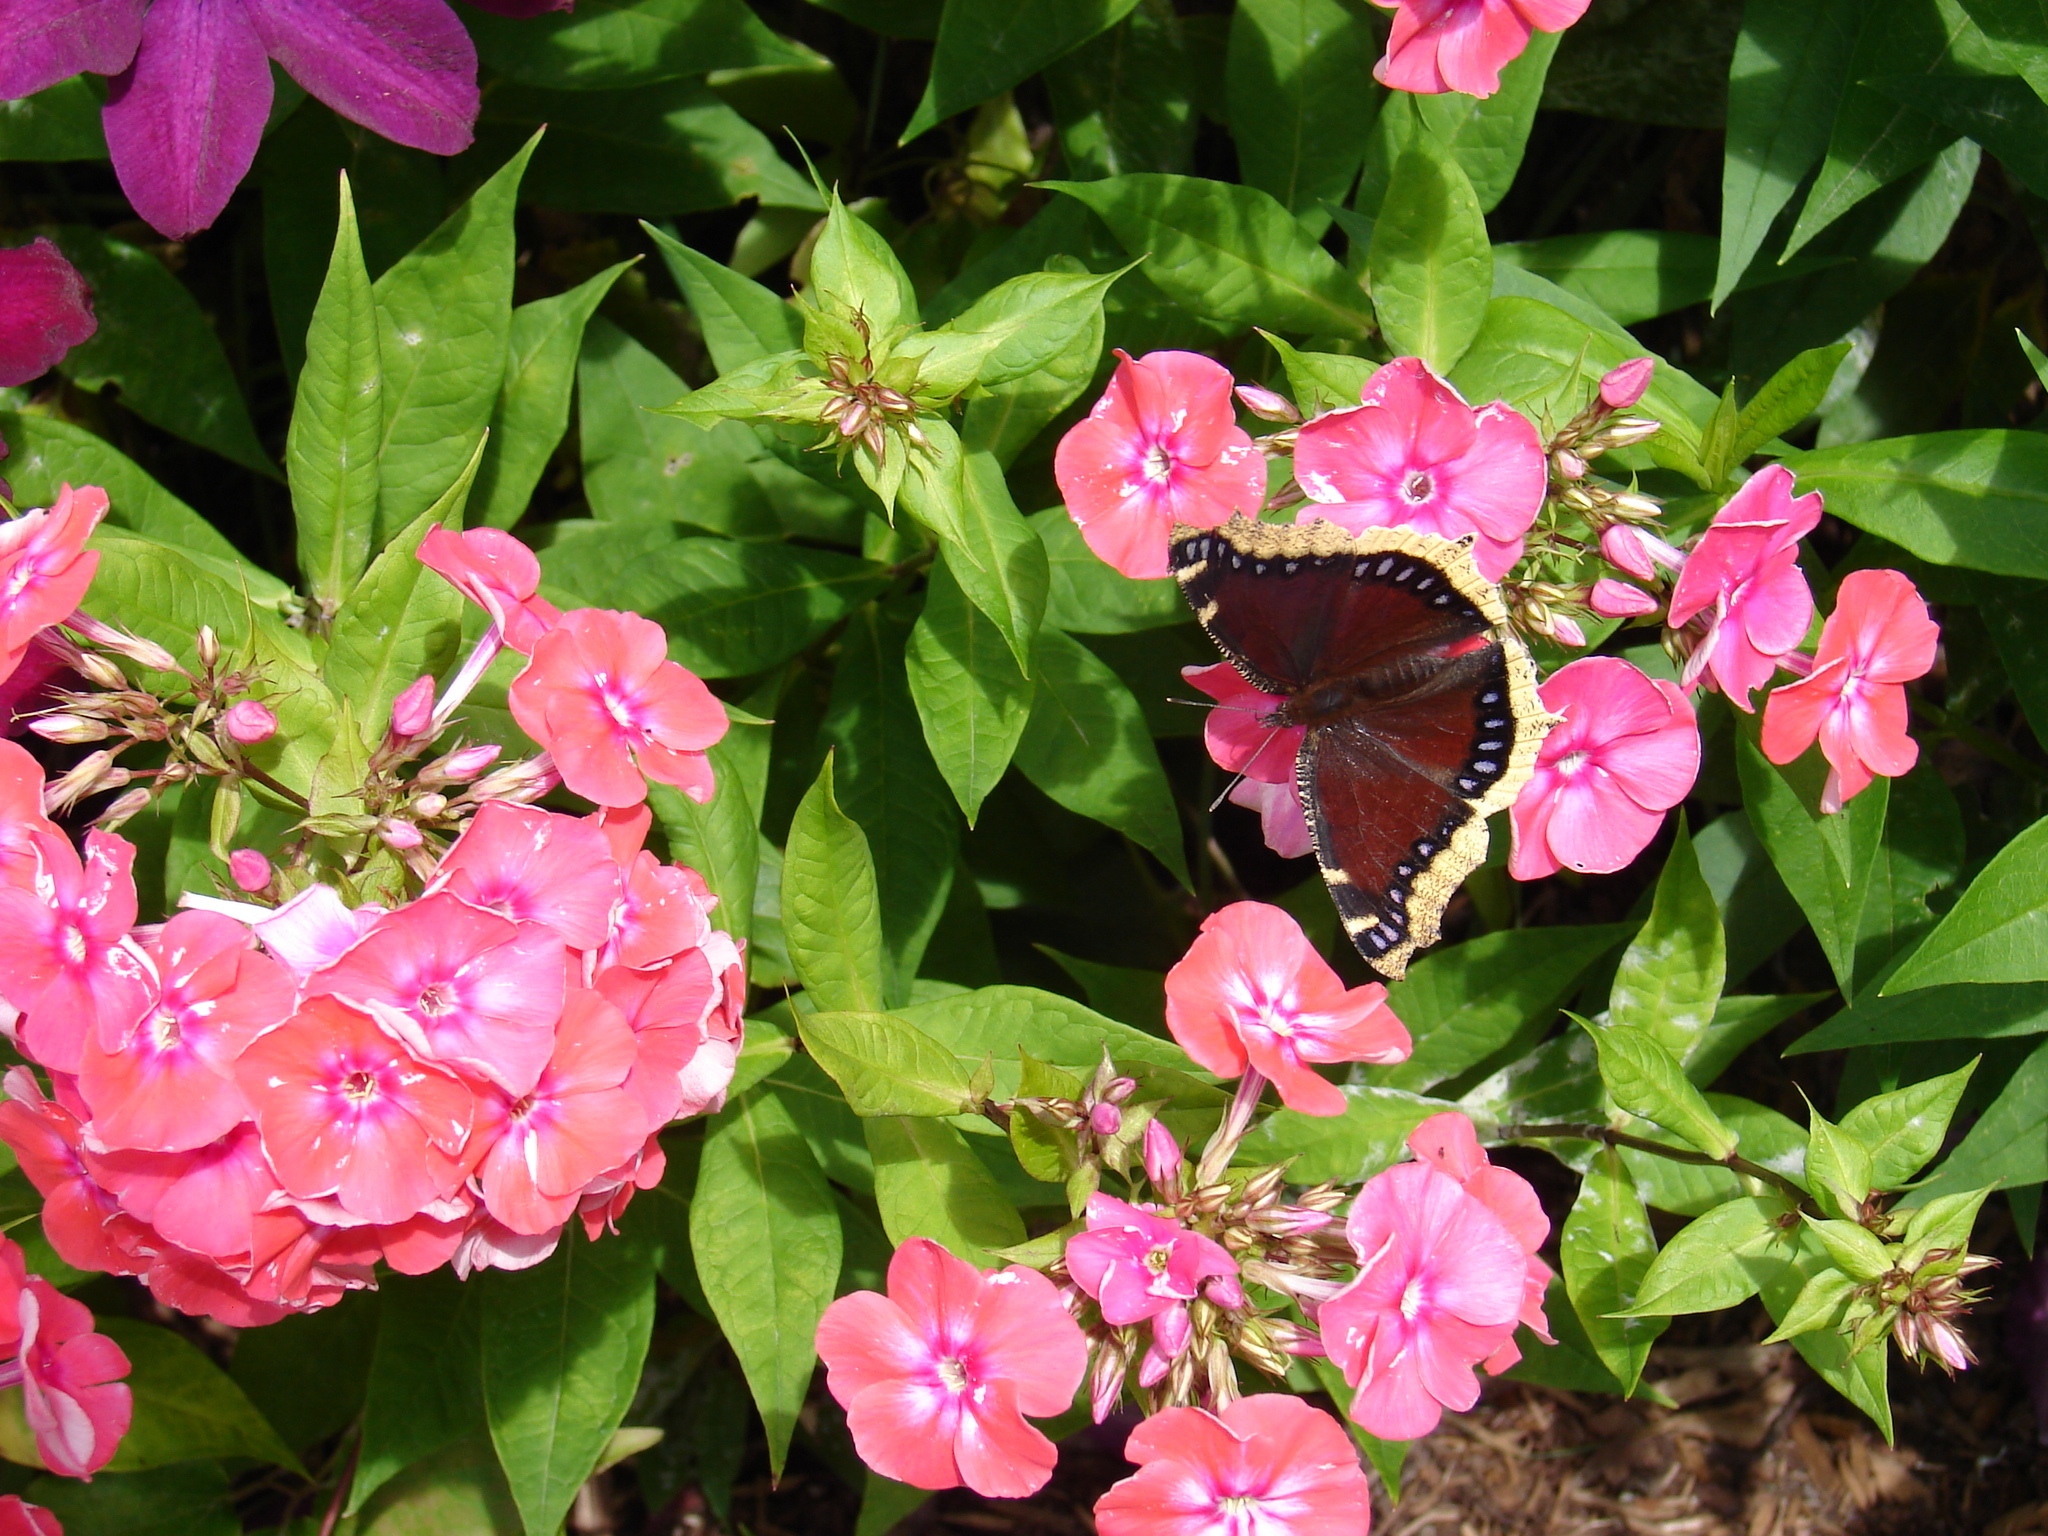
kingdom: Animalia
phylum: Arthropoda
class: Insecta
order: Lepidoptera
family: Nymphalidae
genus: Nymphalis
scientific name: Nymphalis antiopa
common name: Camberwell beauty
